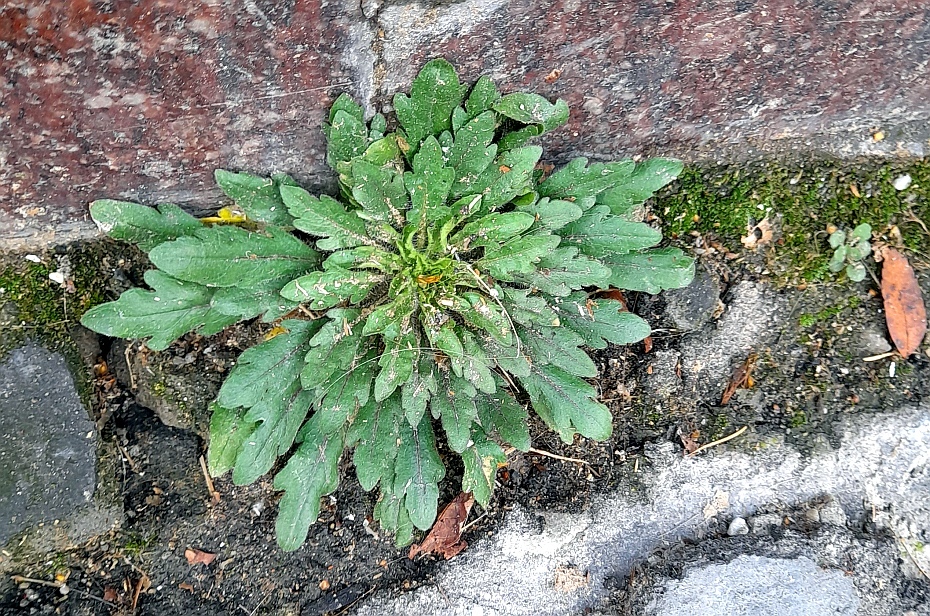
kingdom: Plantae
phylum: Tracheophyta
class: Magnoliopsida
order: Asterales
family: Asteraceae
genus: Erigeron
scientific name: Erigeron canadensis
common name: Canadian fleabane
